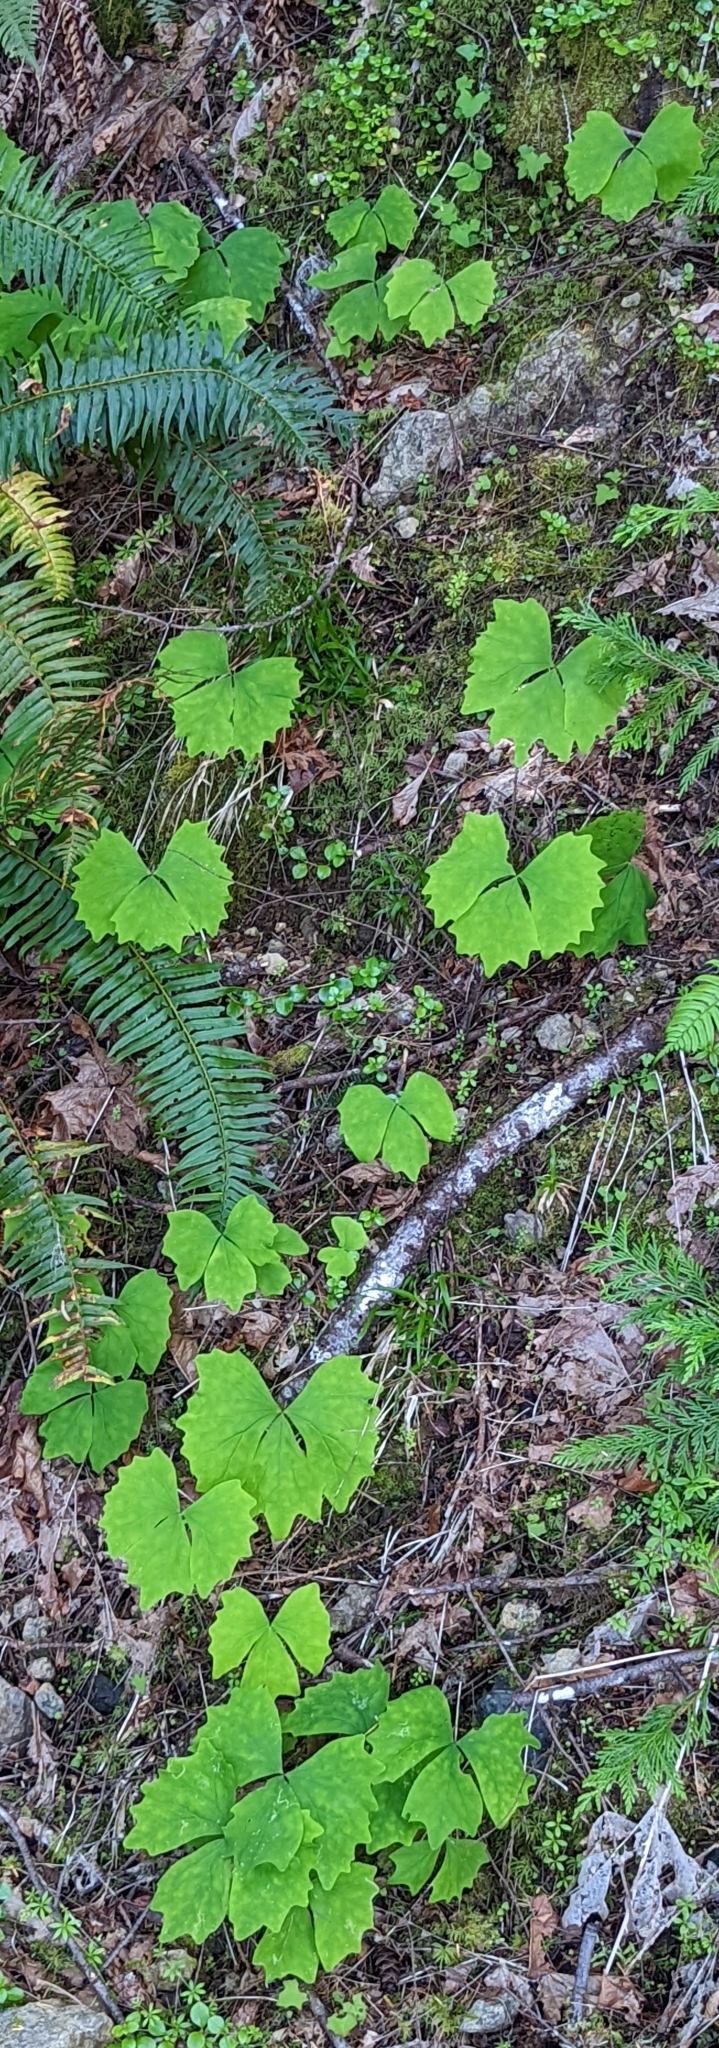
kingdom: Plantae
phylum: Tracheophyta
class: Magnoliopsida
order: Ranunculales
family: Berberidaceae
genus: Achlys
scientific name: Achlys triphylla
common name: Vanilla-leaf
